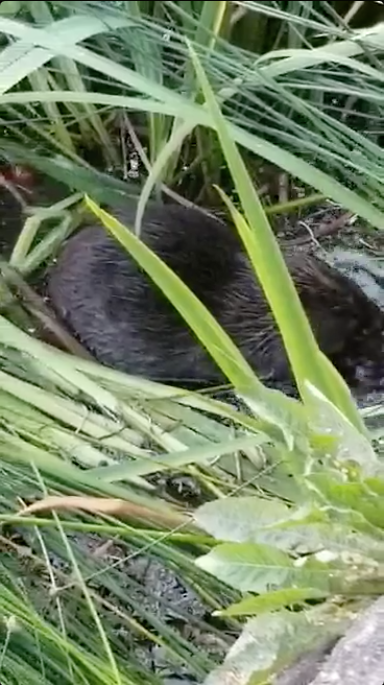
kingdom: Animalia
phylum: Chordata
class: Mammalia
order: Rodentia
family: Castoridae
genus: Castor
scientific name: Castor fiber
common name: Eurasian beaver
